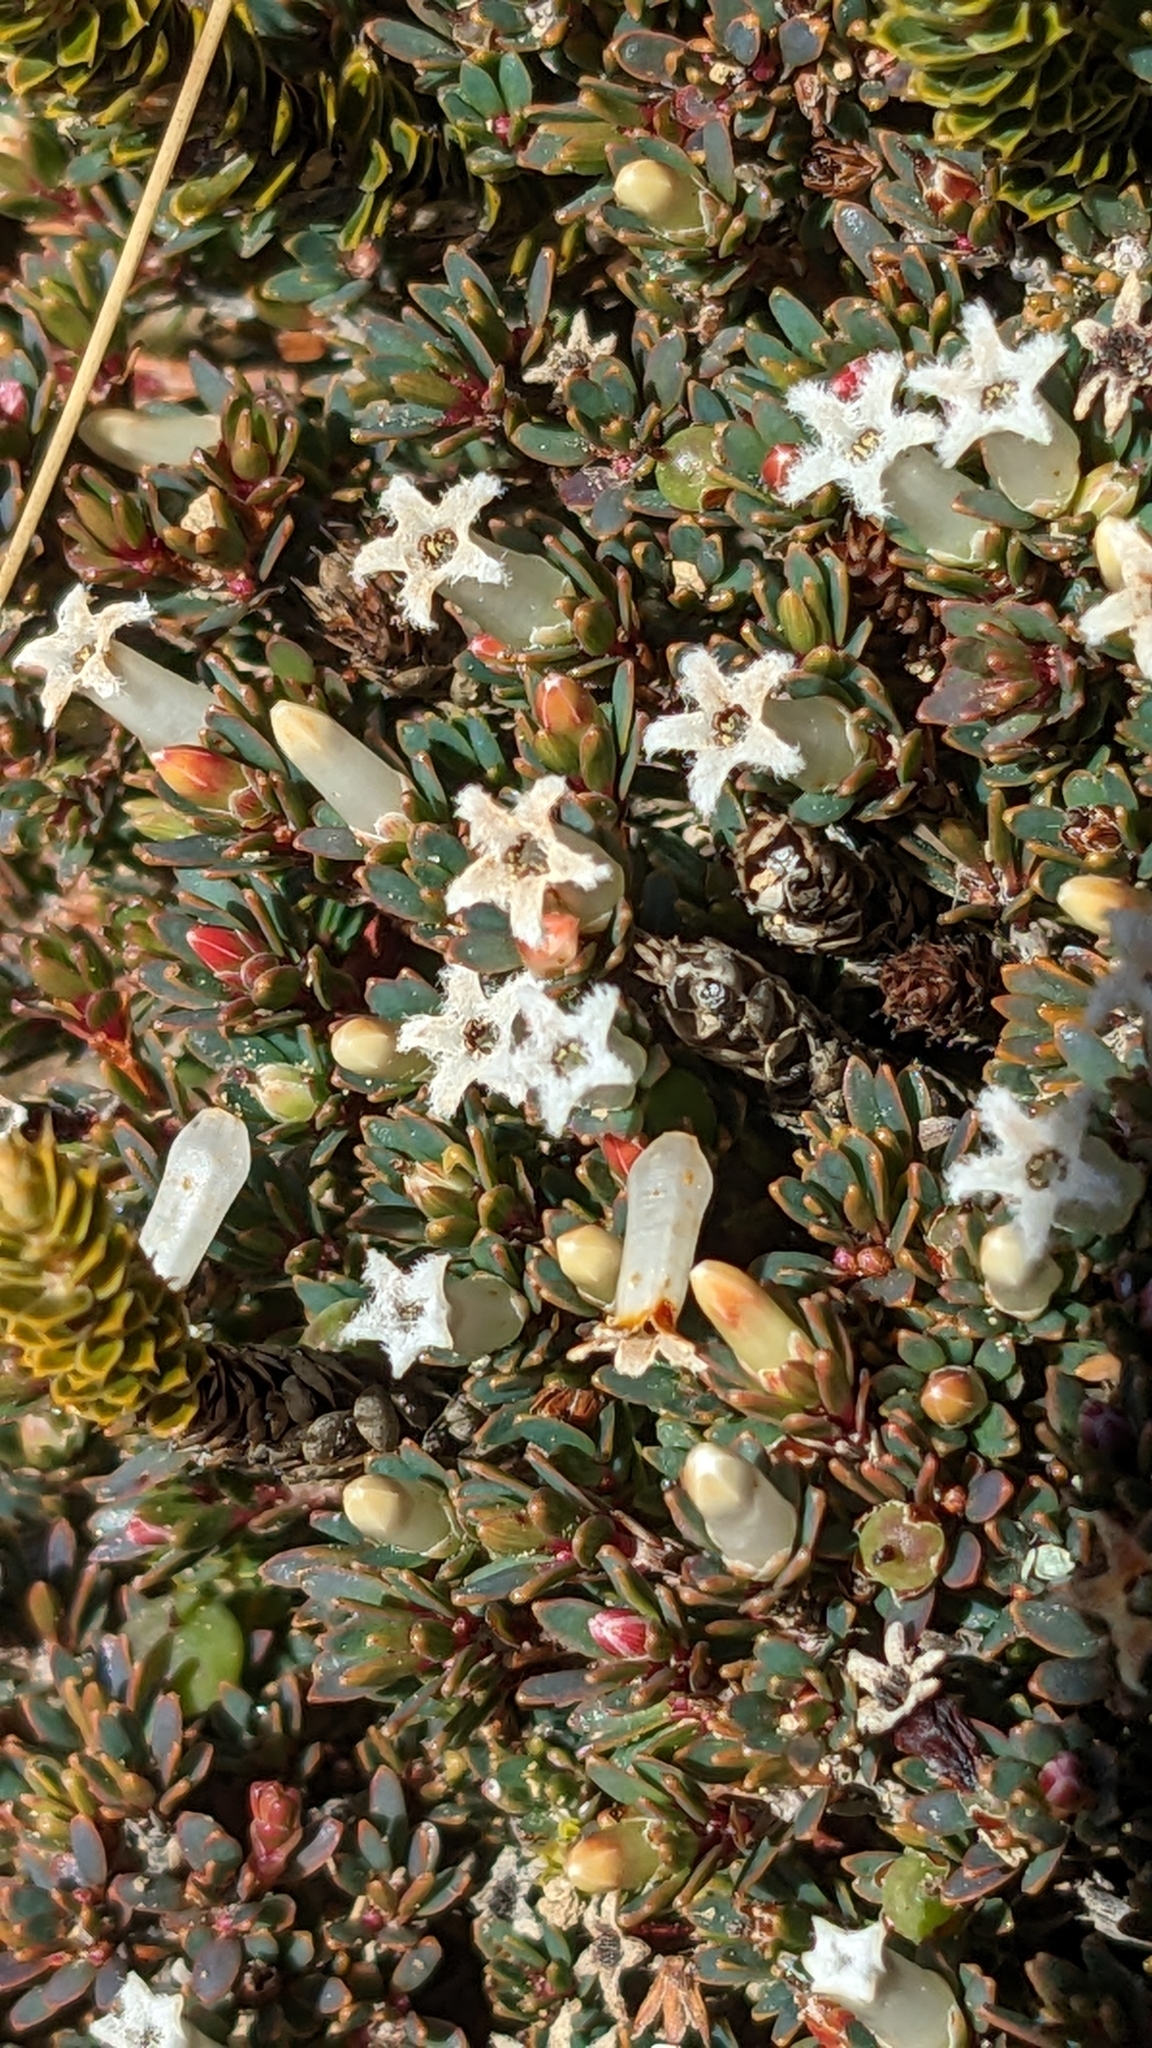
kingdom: Plantae
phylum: Tracheophyta
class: Magnoliopsida
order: Ericales
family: Ericaceae
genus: Pentachondra
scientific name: Pentachondra pumila
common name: Carpet-heath
